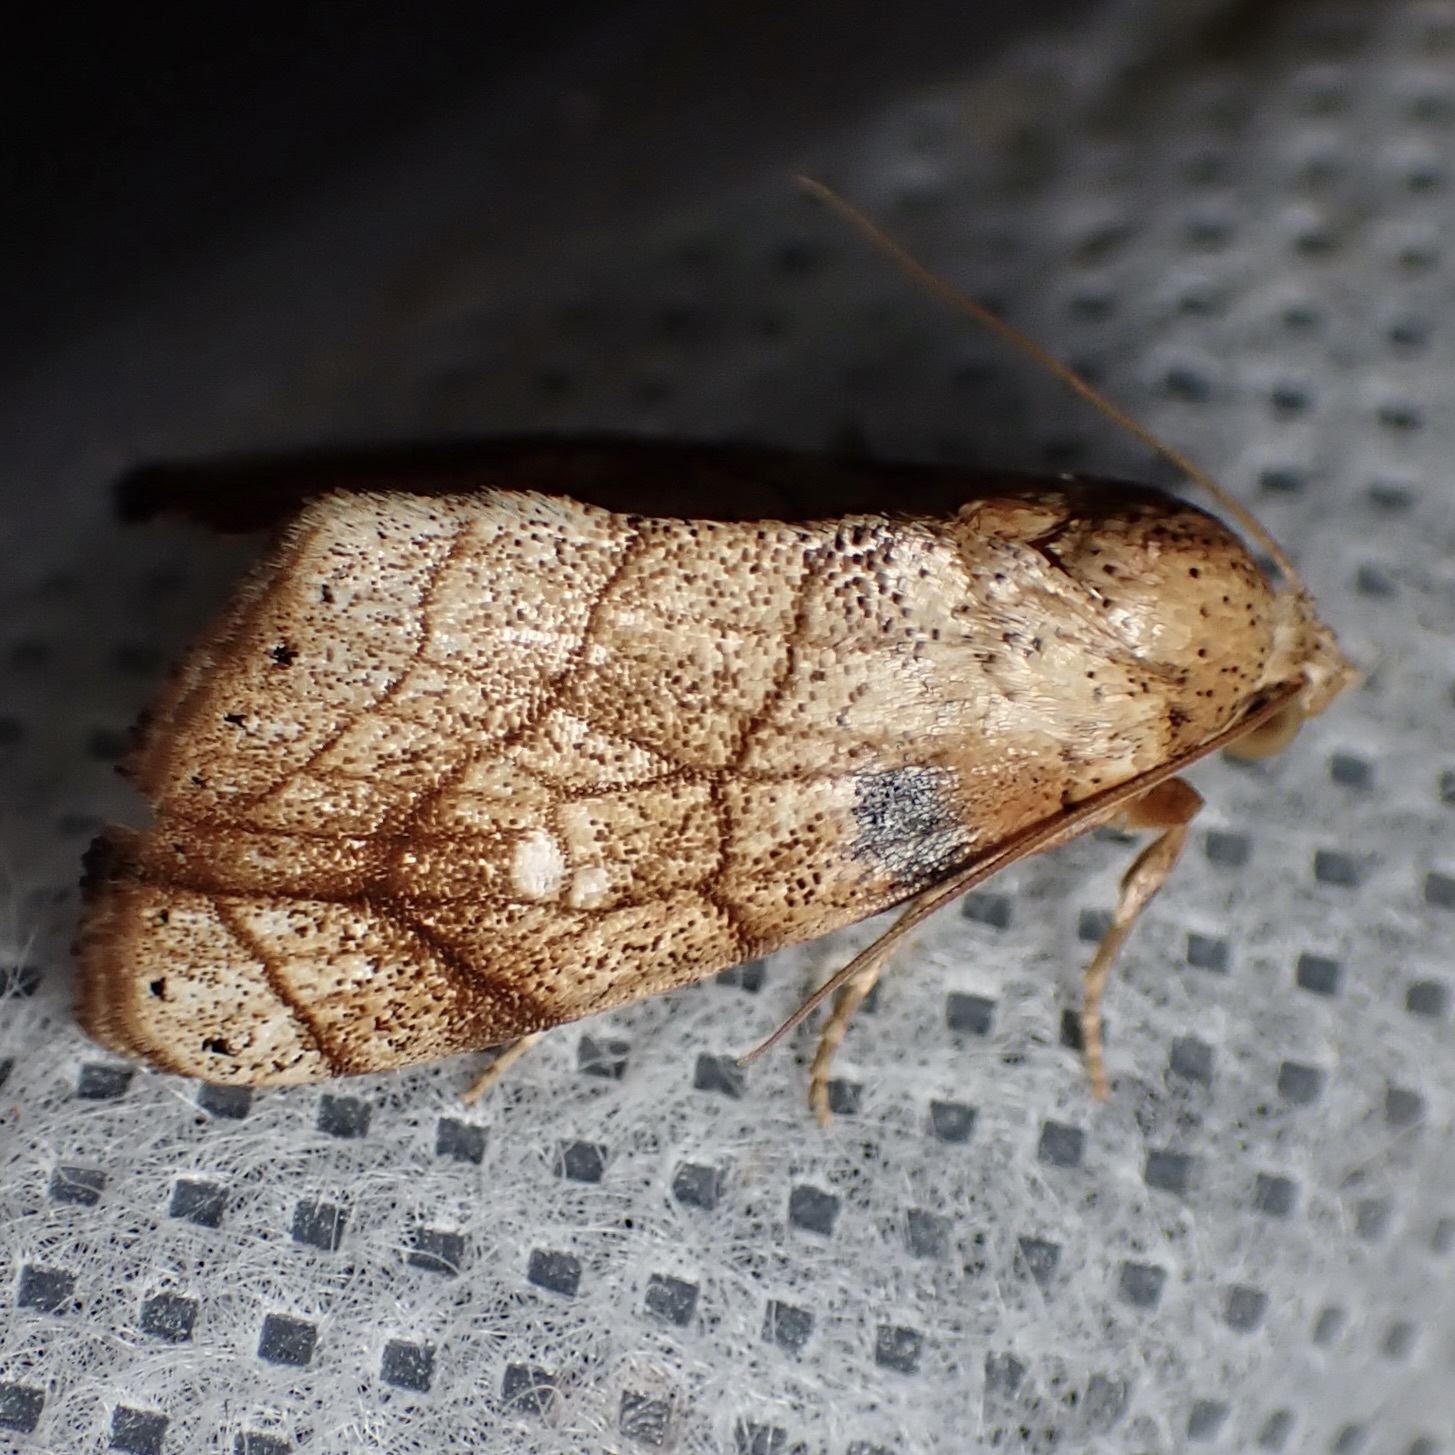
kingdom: Animalia
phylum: Arthropoda
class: Insecta
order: Lepidoptera
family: Noctuidae
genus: Bagisara
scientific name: Bagisara tristicta
